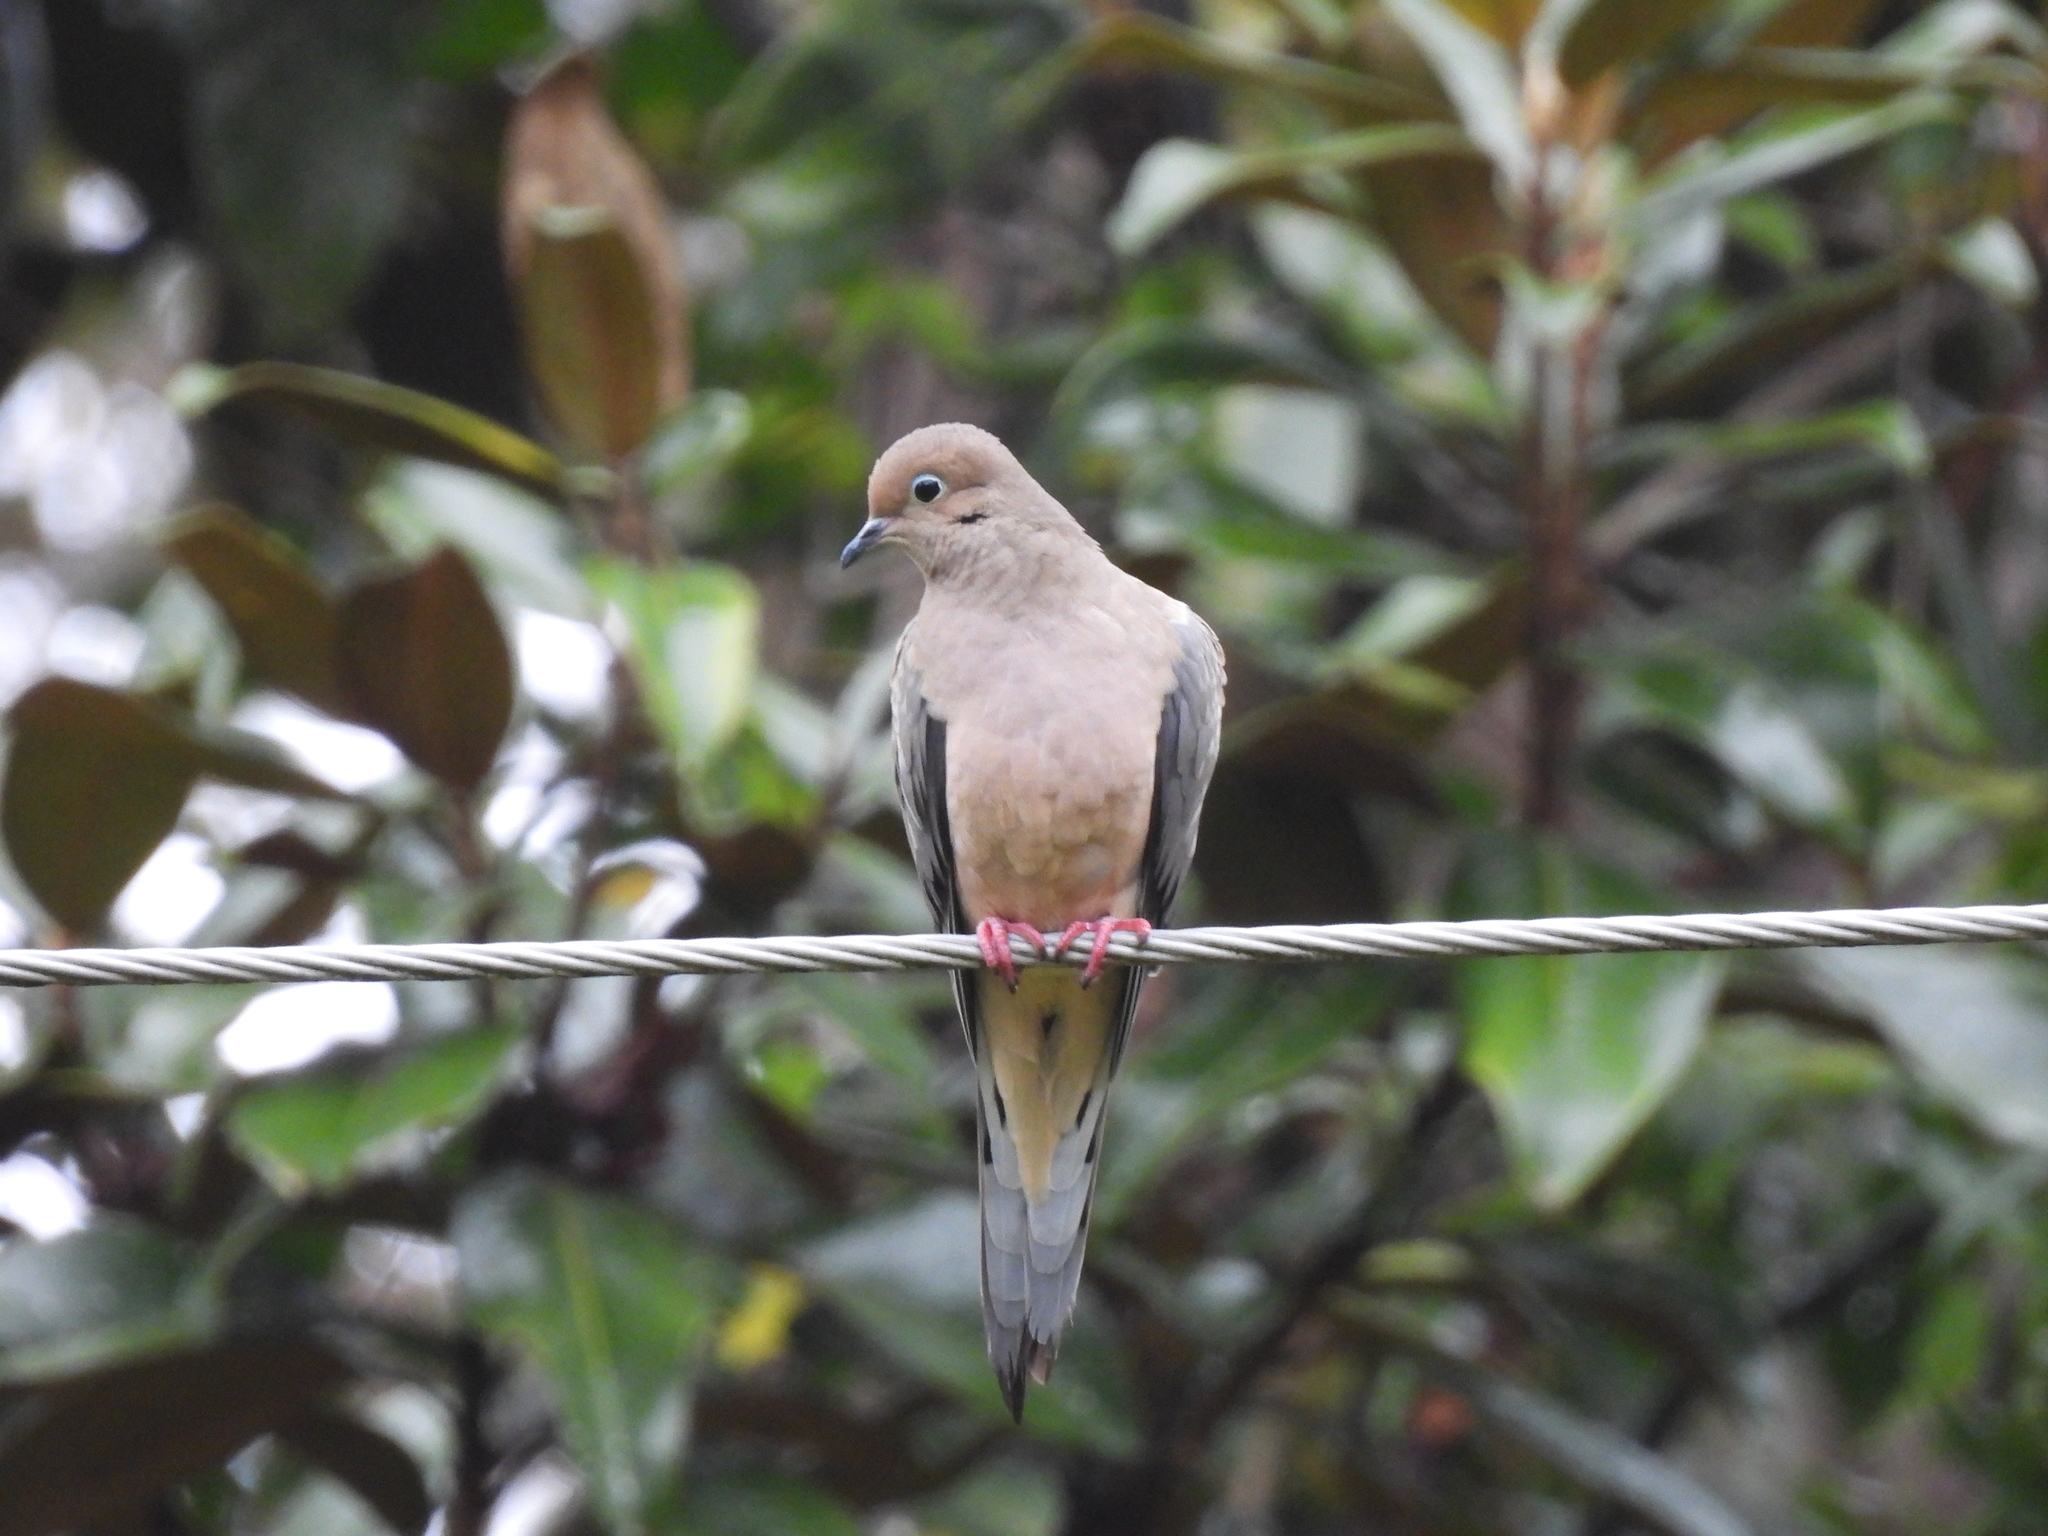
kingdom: Animalia
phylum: Chordata
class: Aves
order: Columbiformes
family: Columbidae
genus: Zenaida
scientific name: Zenaida macroura
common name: Mourning dove
